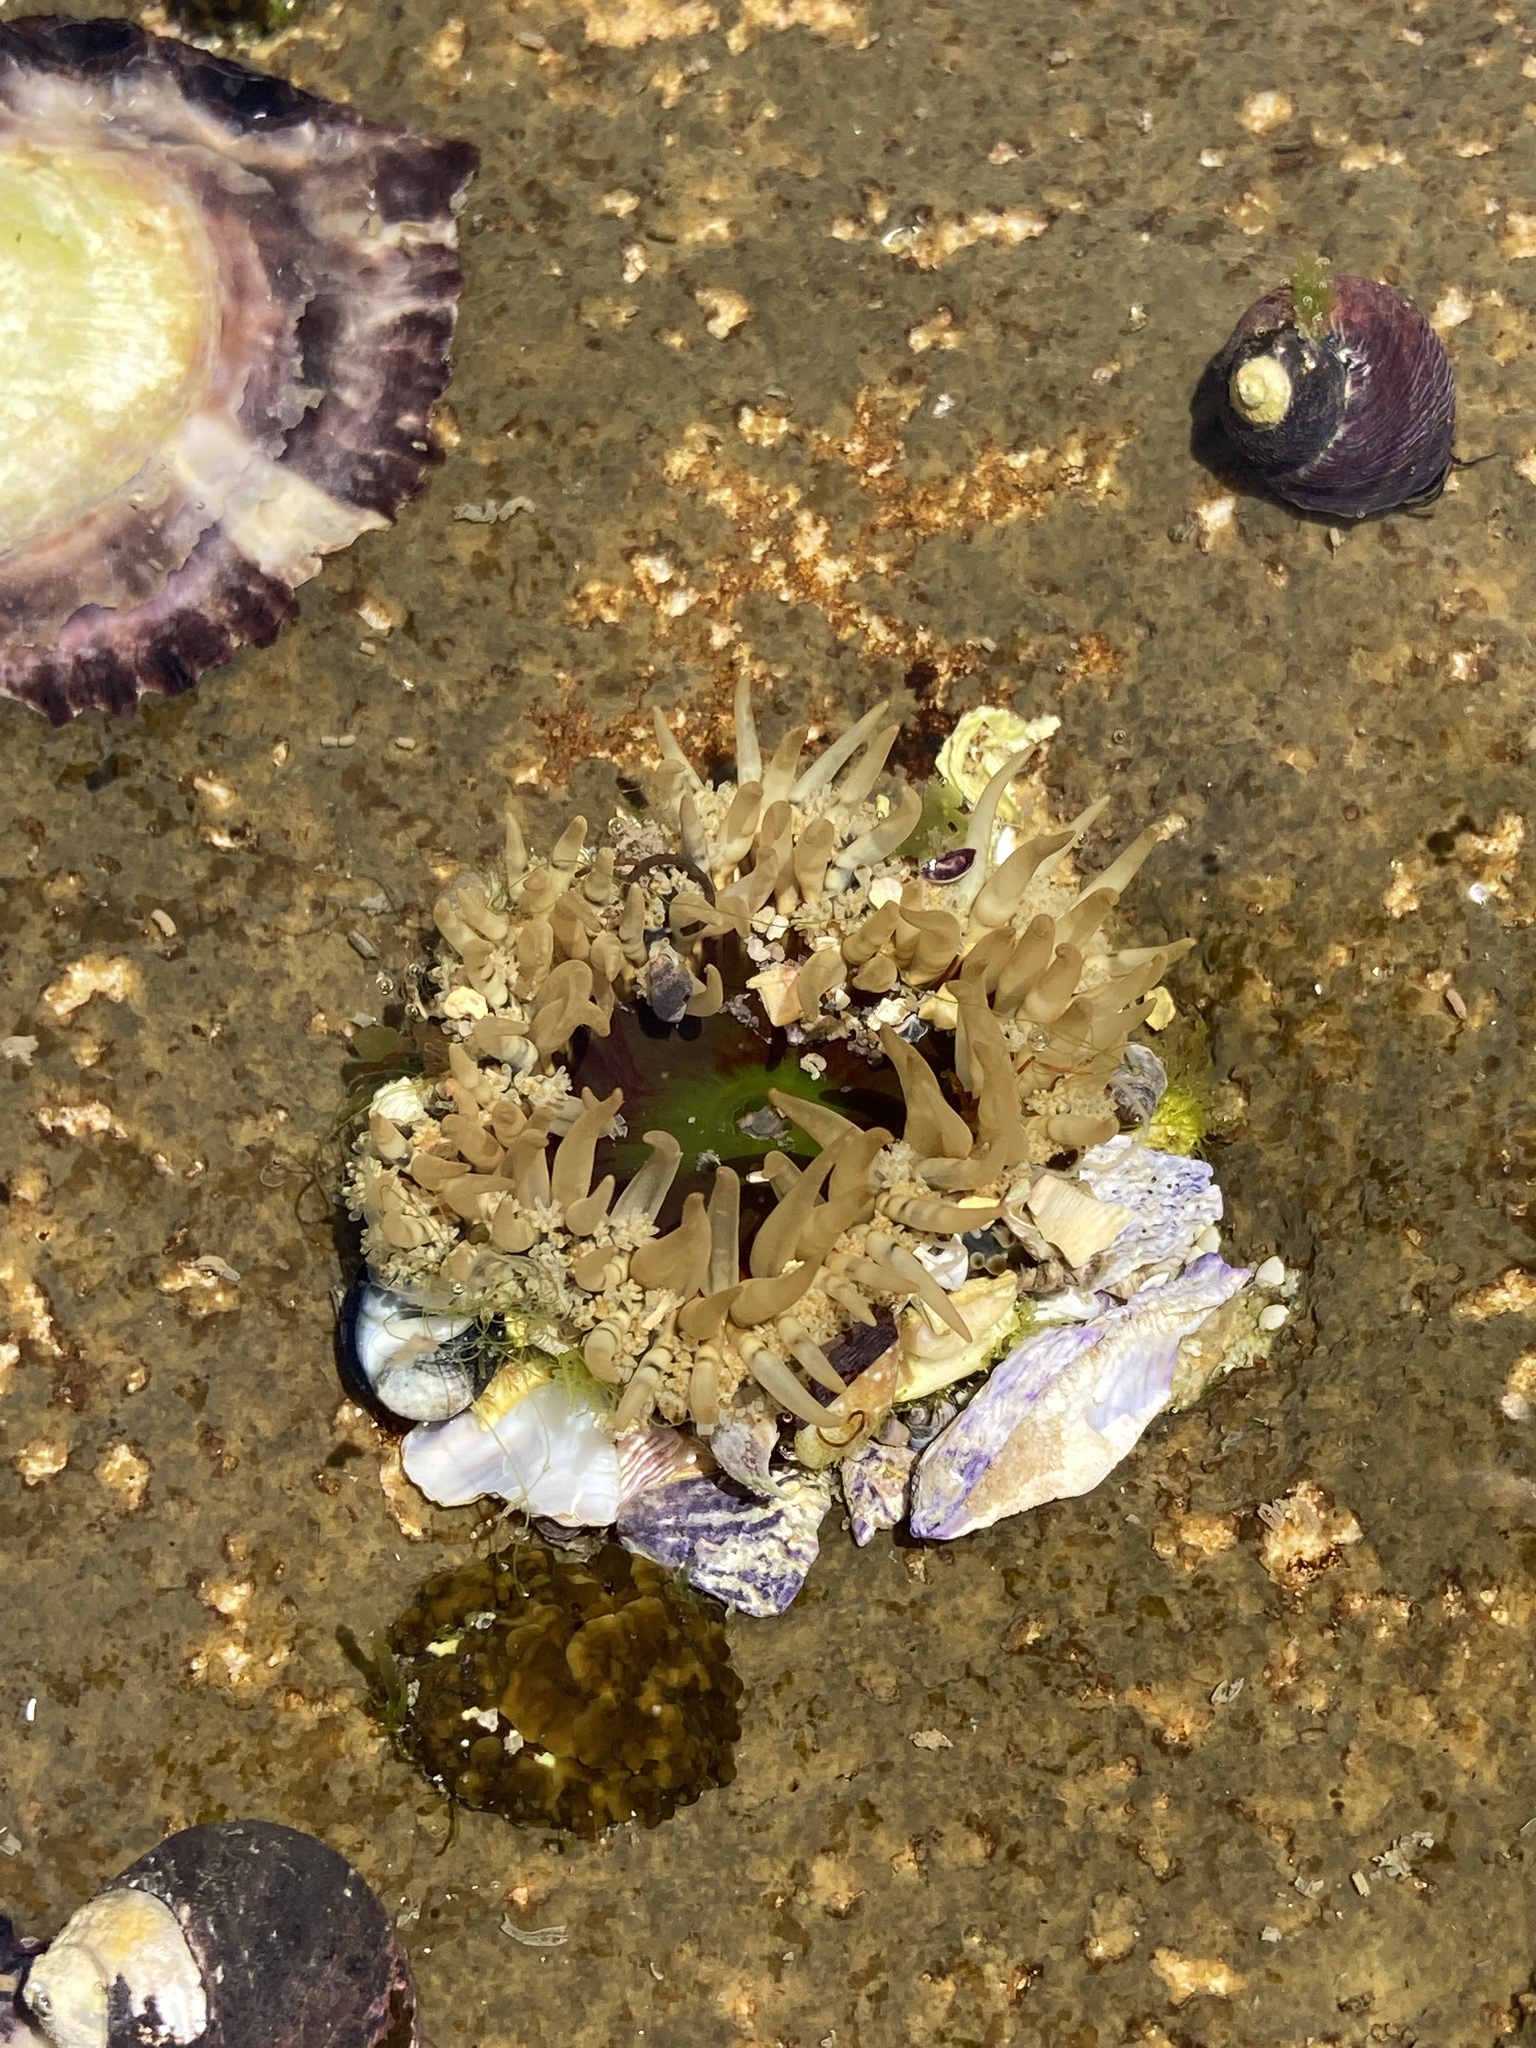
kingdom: Animalia
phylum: Cnidaria
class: Anthozoa
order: Actiniaria
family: Actiniidae
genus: Oulactis
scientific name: Oulactis muscosa
